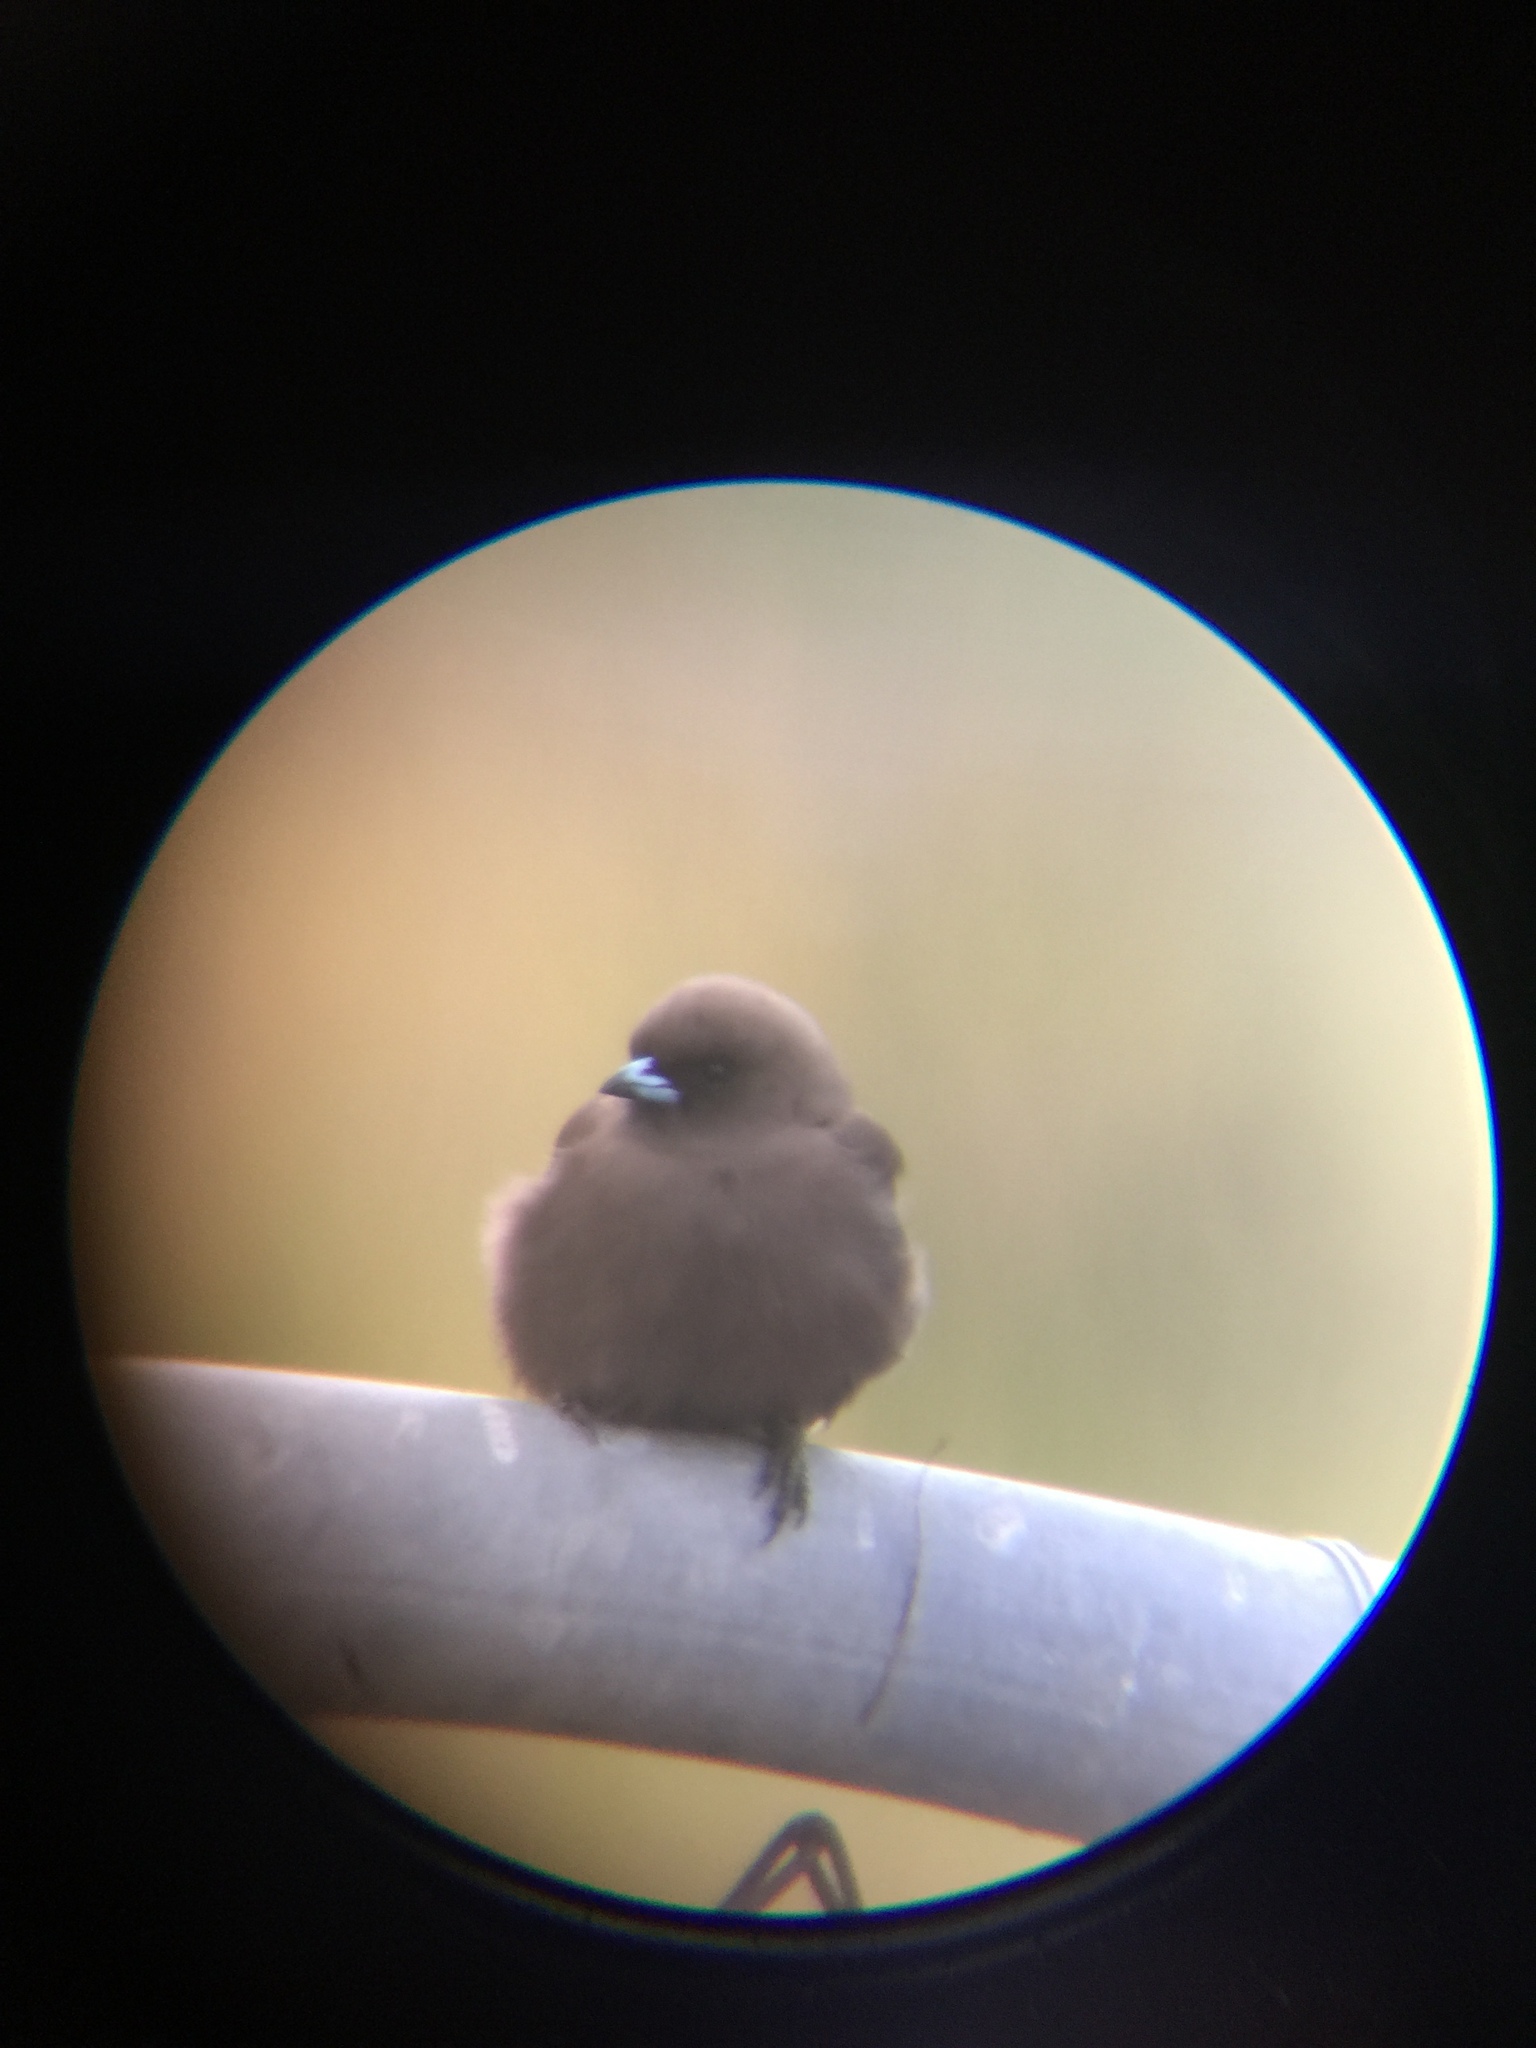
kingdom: Animalia
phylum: Chordata
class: Aves
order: Passeriformes
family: Artamidae
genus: Artamus
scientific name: Artamus cyanopterus
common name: Dusky woodswallow
